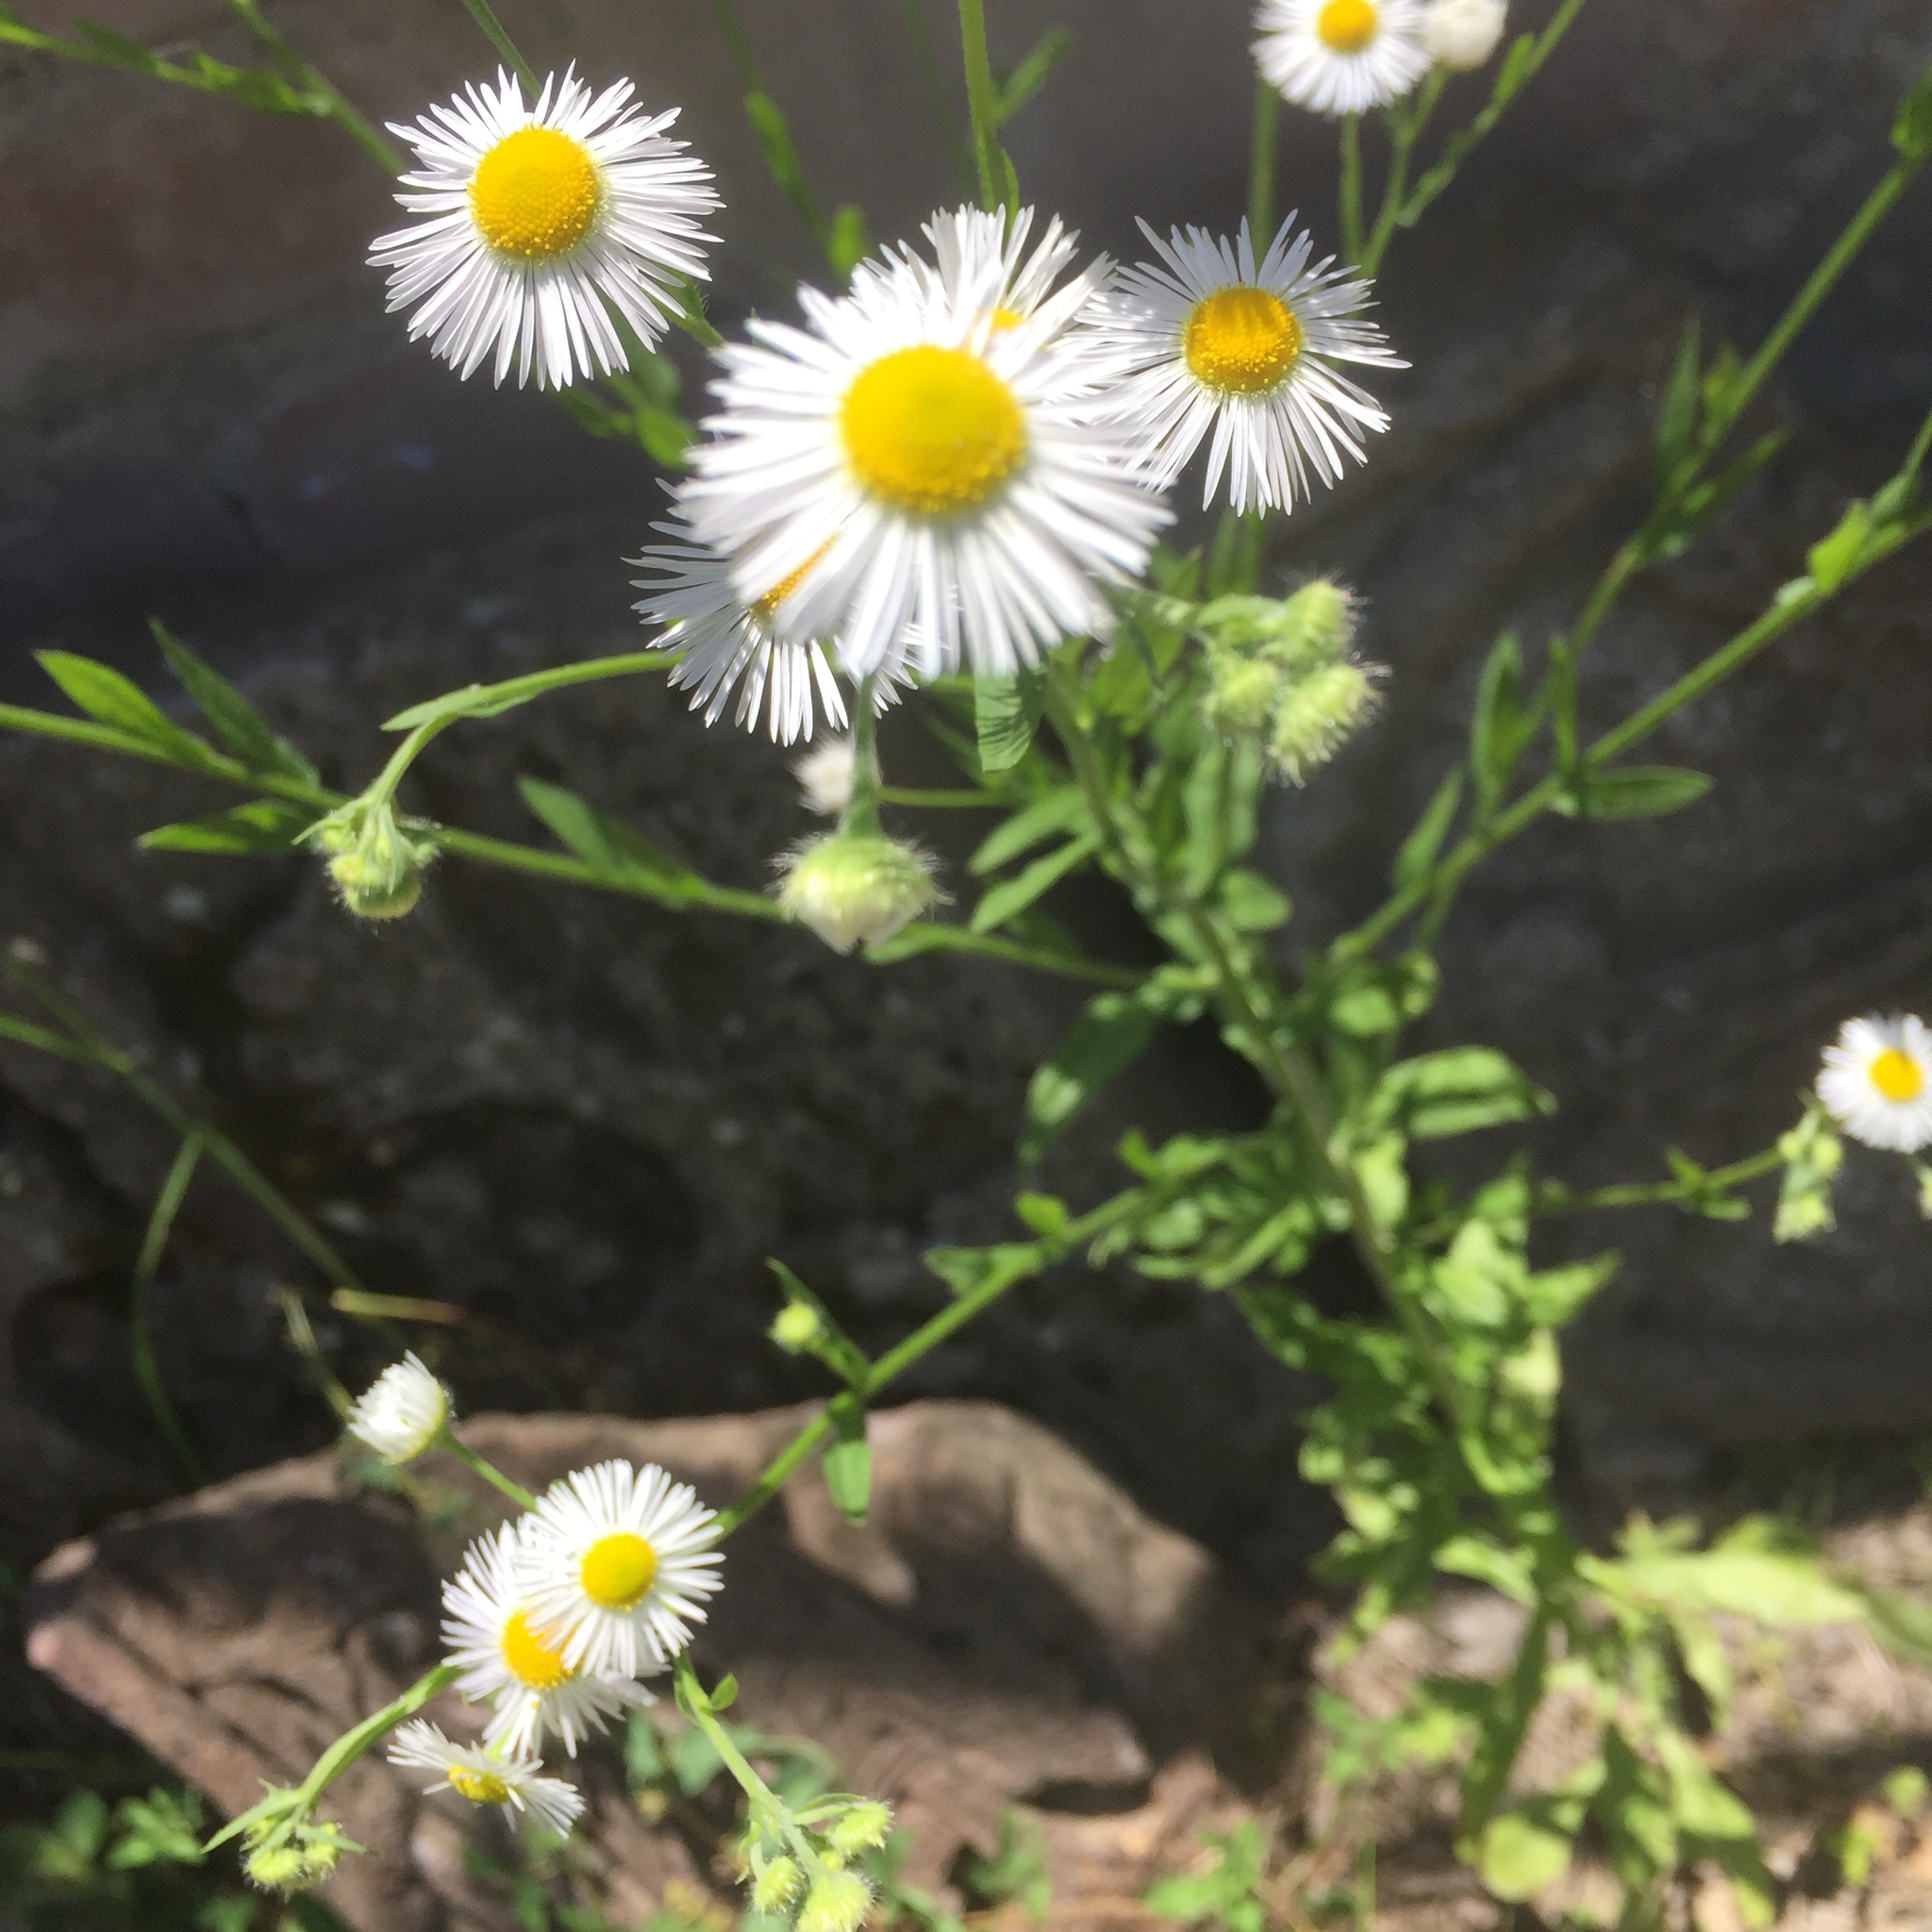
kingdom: Plantae
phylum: Tracheophyta
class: Magnoliopsida
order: Asterales
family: Asteraceae
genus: Erigeron
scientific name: Erigeron annuus
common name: Tall fleabane
